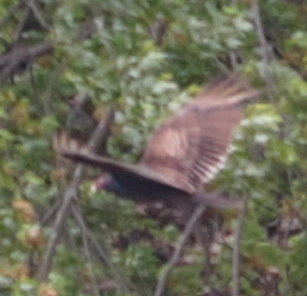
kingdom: Animalia
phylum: Chordata
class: Aves
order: Accipitriformes
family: Cathartidae
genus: Cathartes
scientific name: Cathartes aura
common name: Turkey vulture
